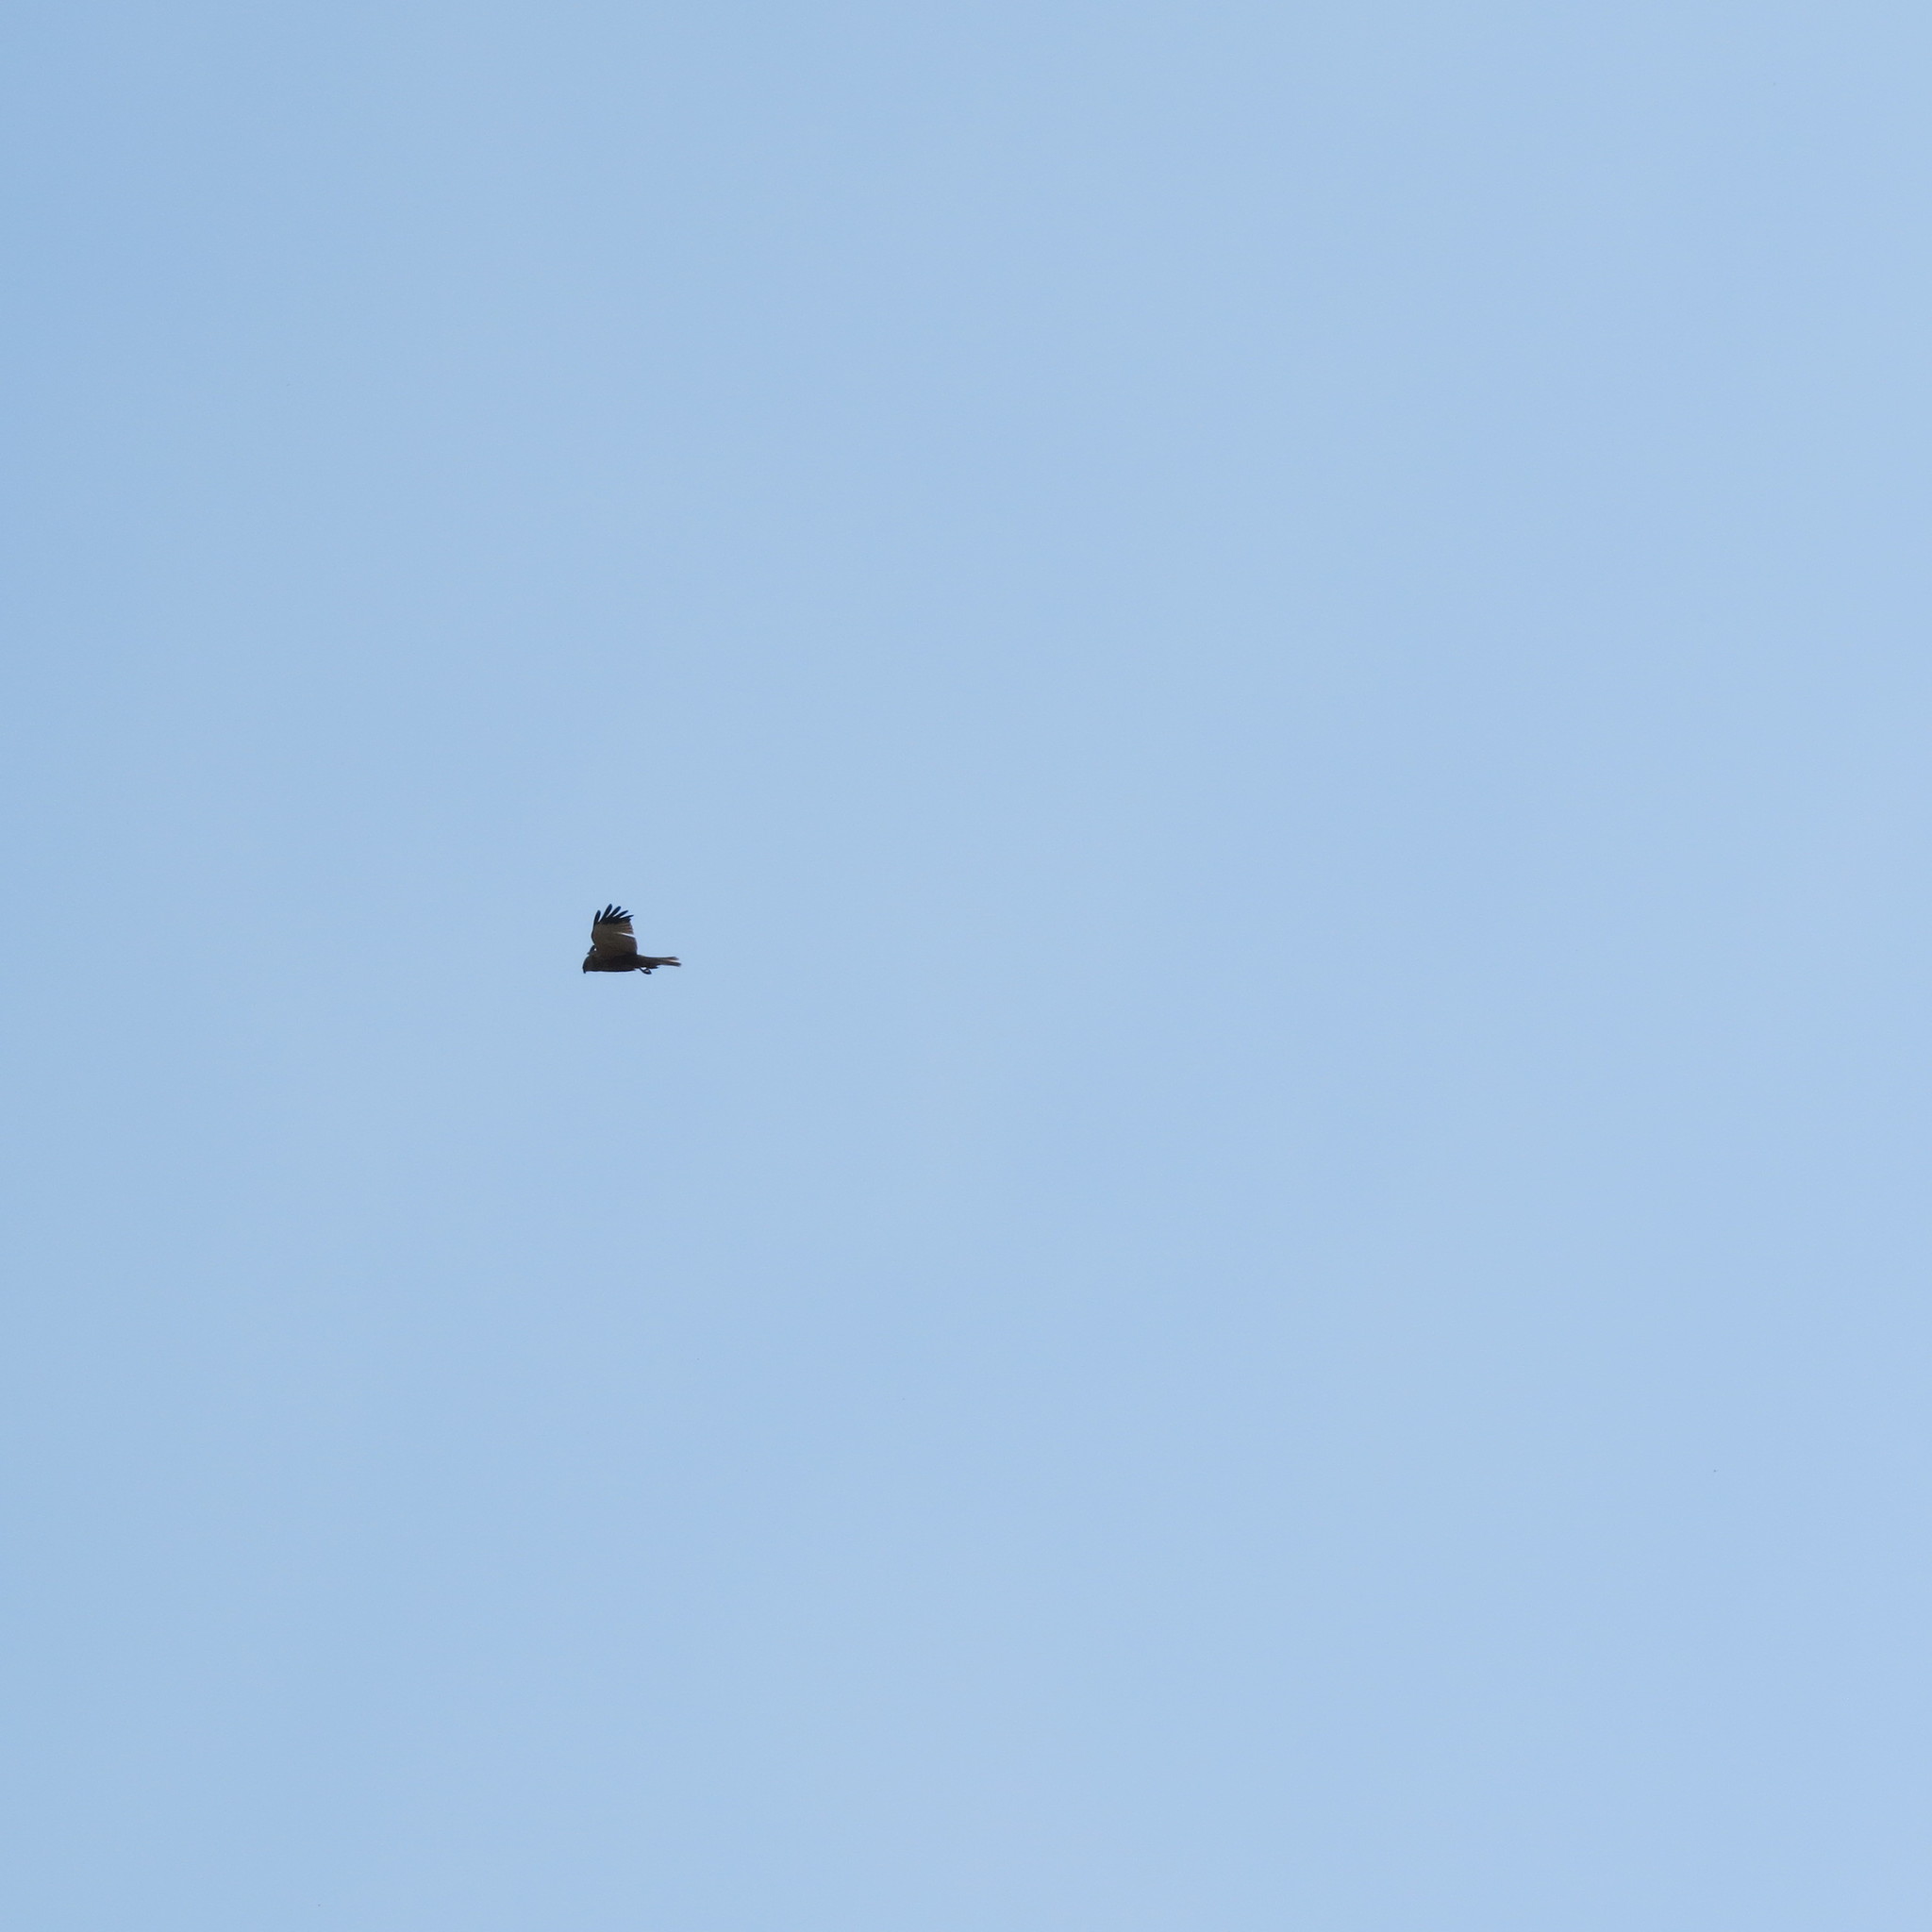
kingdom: Animalia
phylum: Chordata
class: Aves
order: Accipitriformes
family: Accipitridae
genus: Circus
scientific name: Circus aeruginosus
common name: Western marsh harrier
